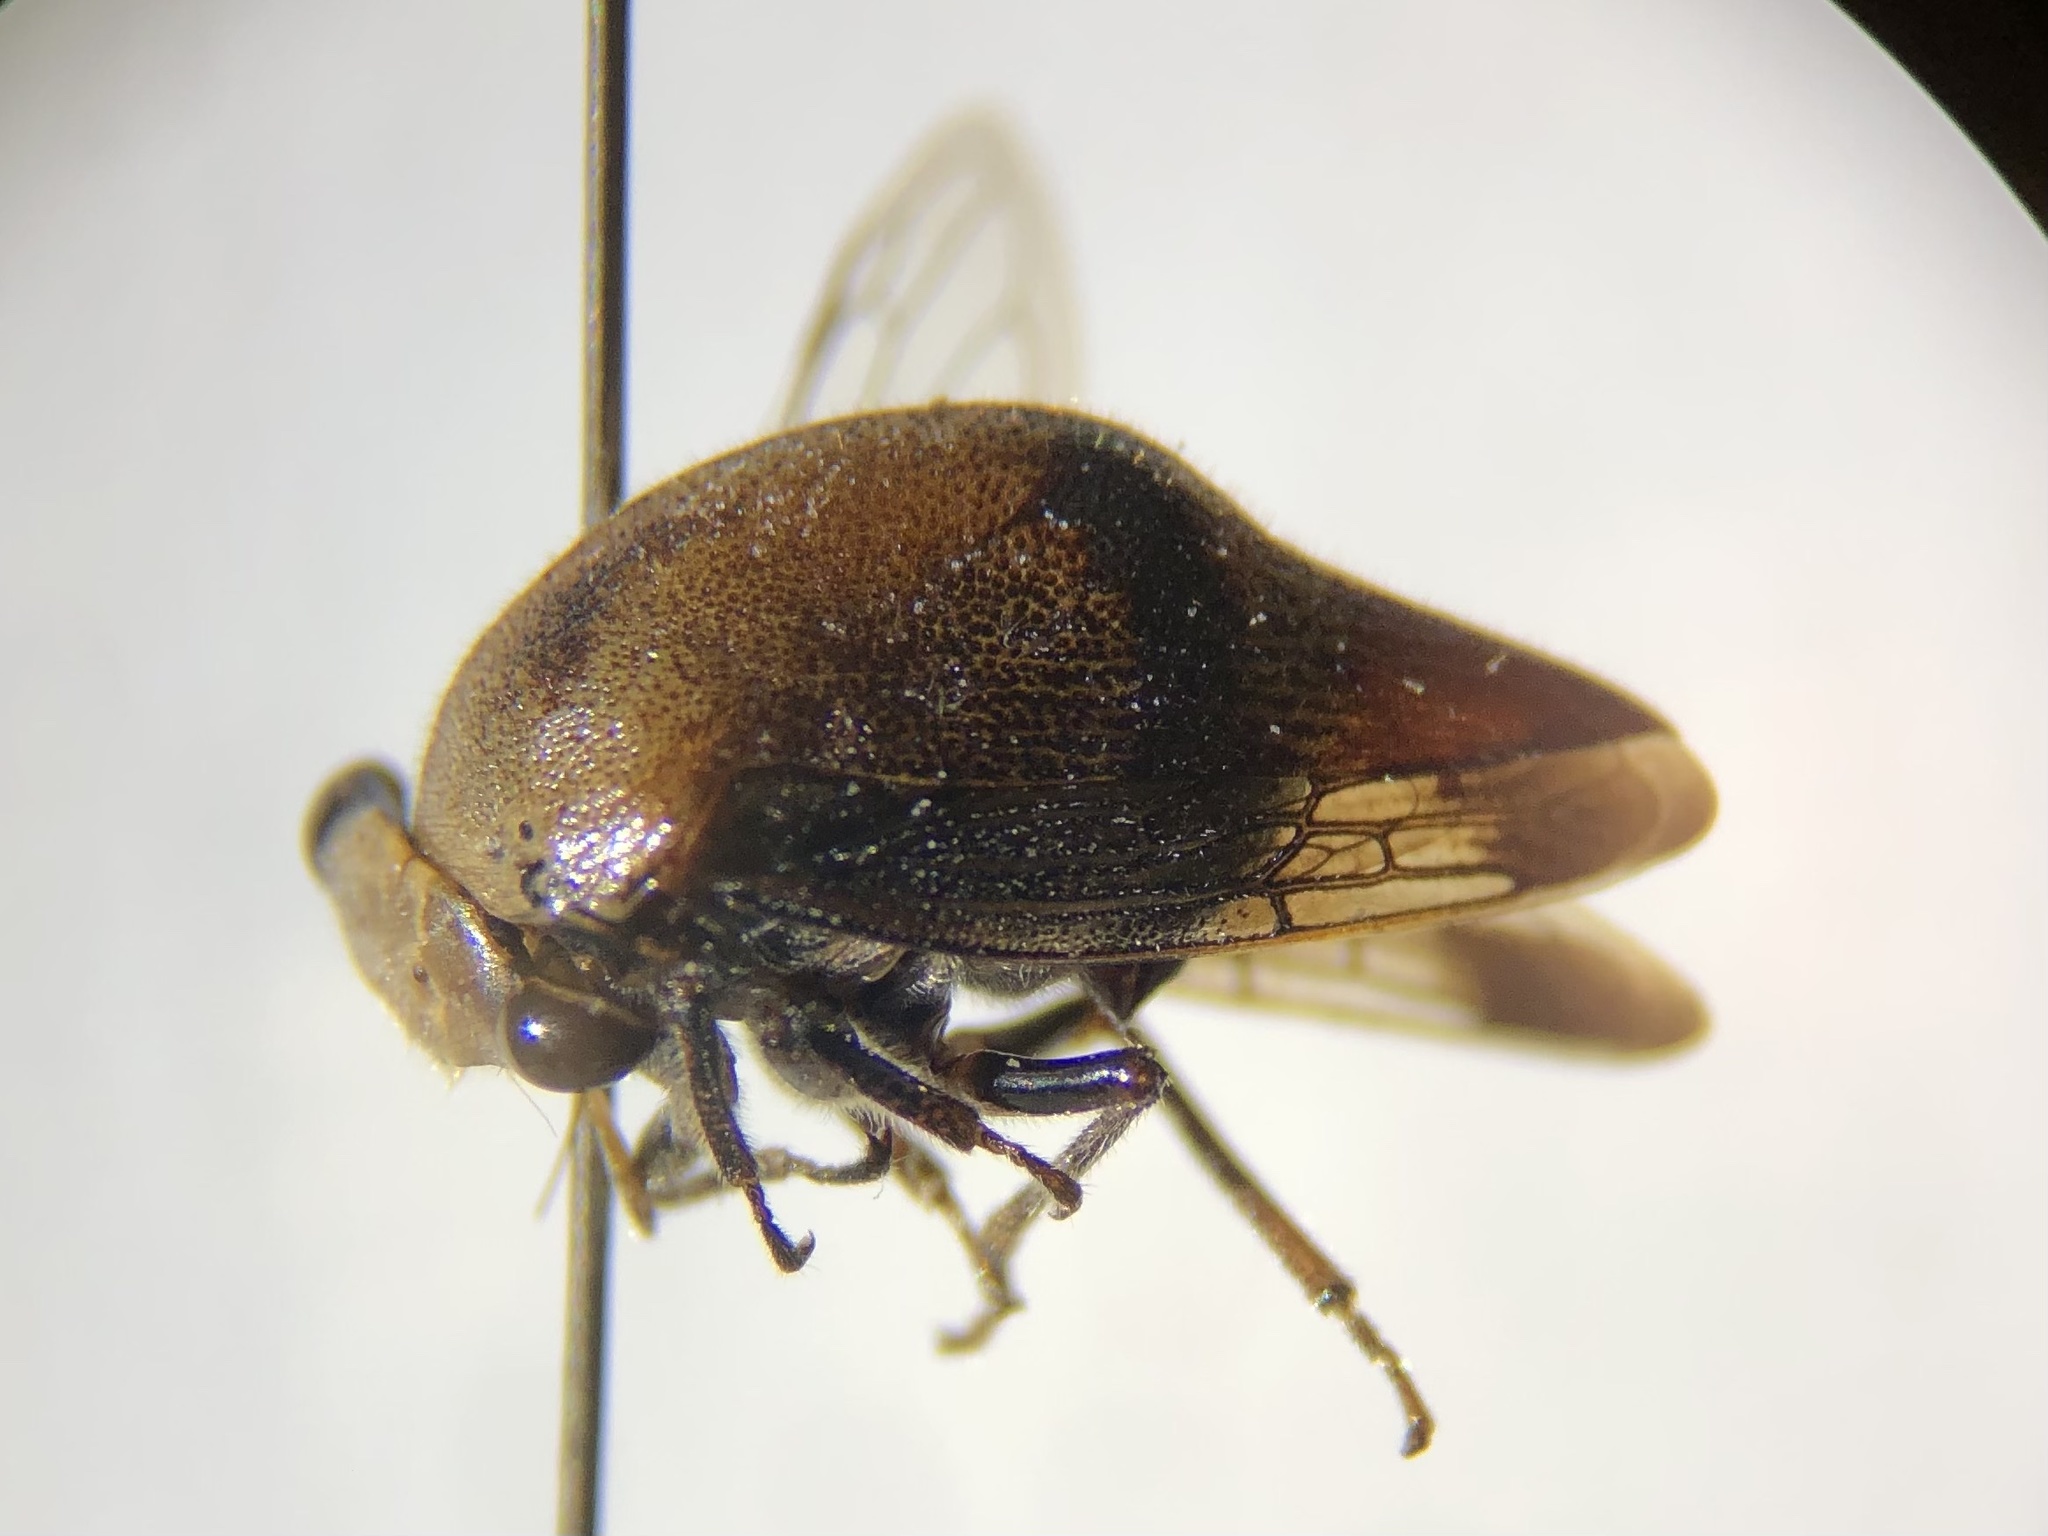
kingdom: Animalia
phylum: Arthropoda
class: Insecta
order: Hemiptera
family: Membracidae
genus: Carynota
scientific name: Carynota mera
